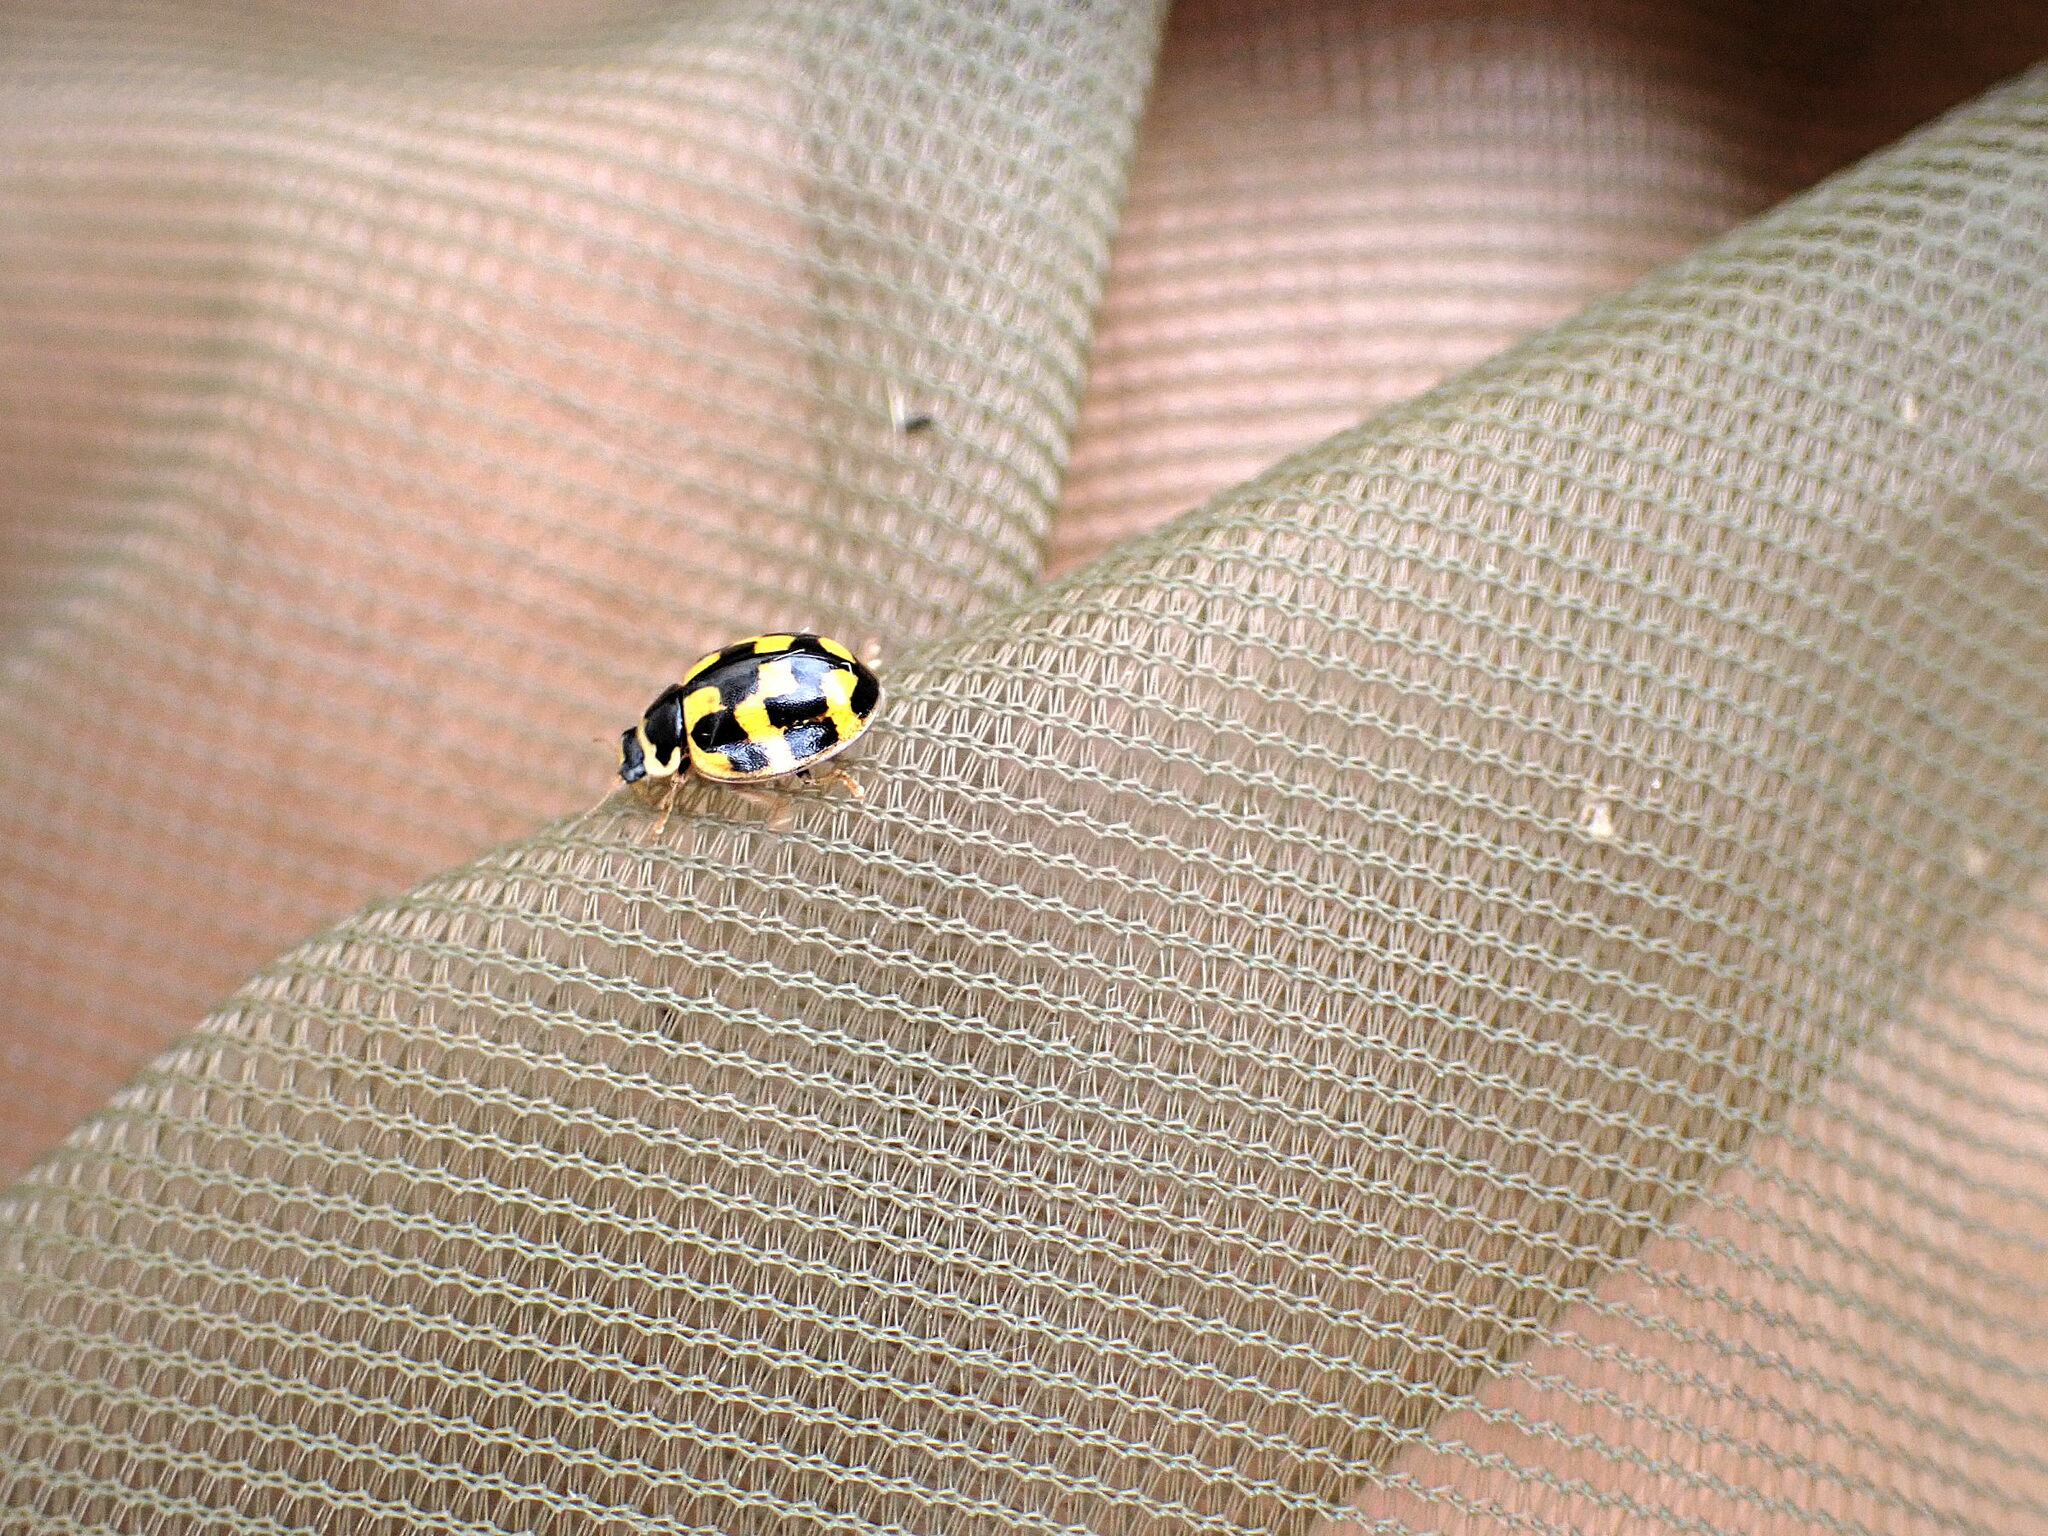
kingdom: Animalia
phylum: Arthropoda
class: Insecta
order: Coleoptera
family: Coccinellidae
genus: Propylaea
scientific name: Propylaea quatuordecimpunctata
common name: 14-spotted ladybird beetle
